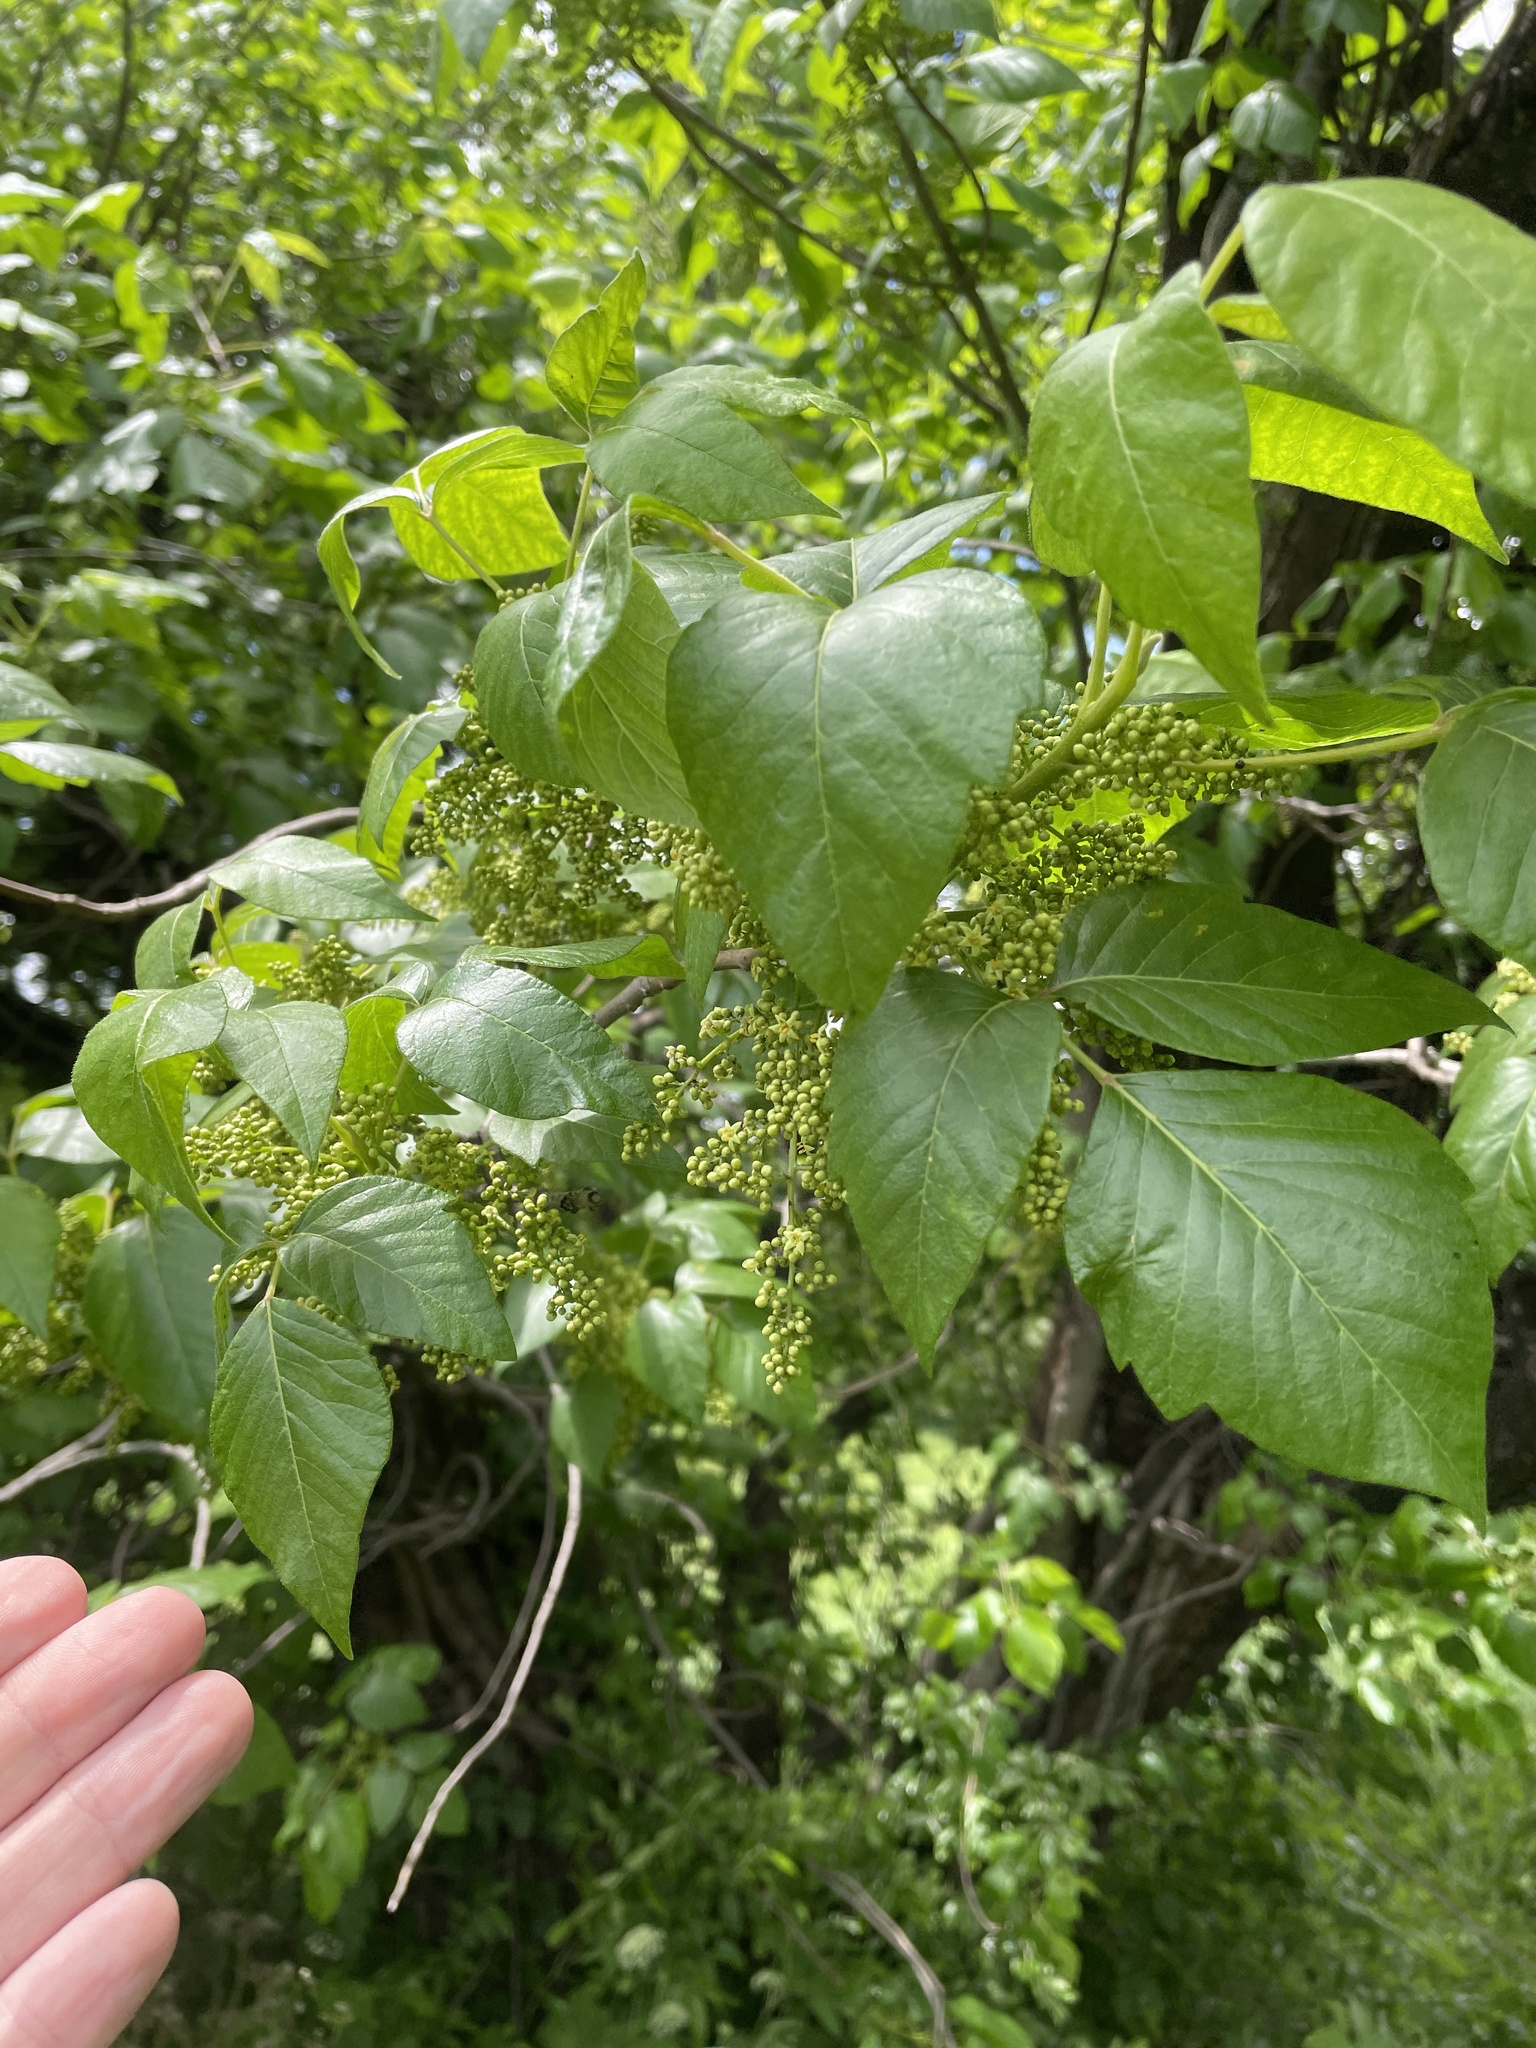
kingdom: Plantae
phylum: Tracheophyta
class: Magnoliopsida
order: Sapindales
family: Anacardiaceae
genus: Toxicodendron
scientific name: Toxicodendron radicans
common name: Poison ivy
